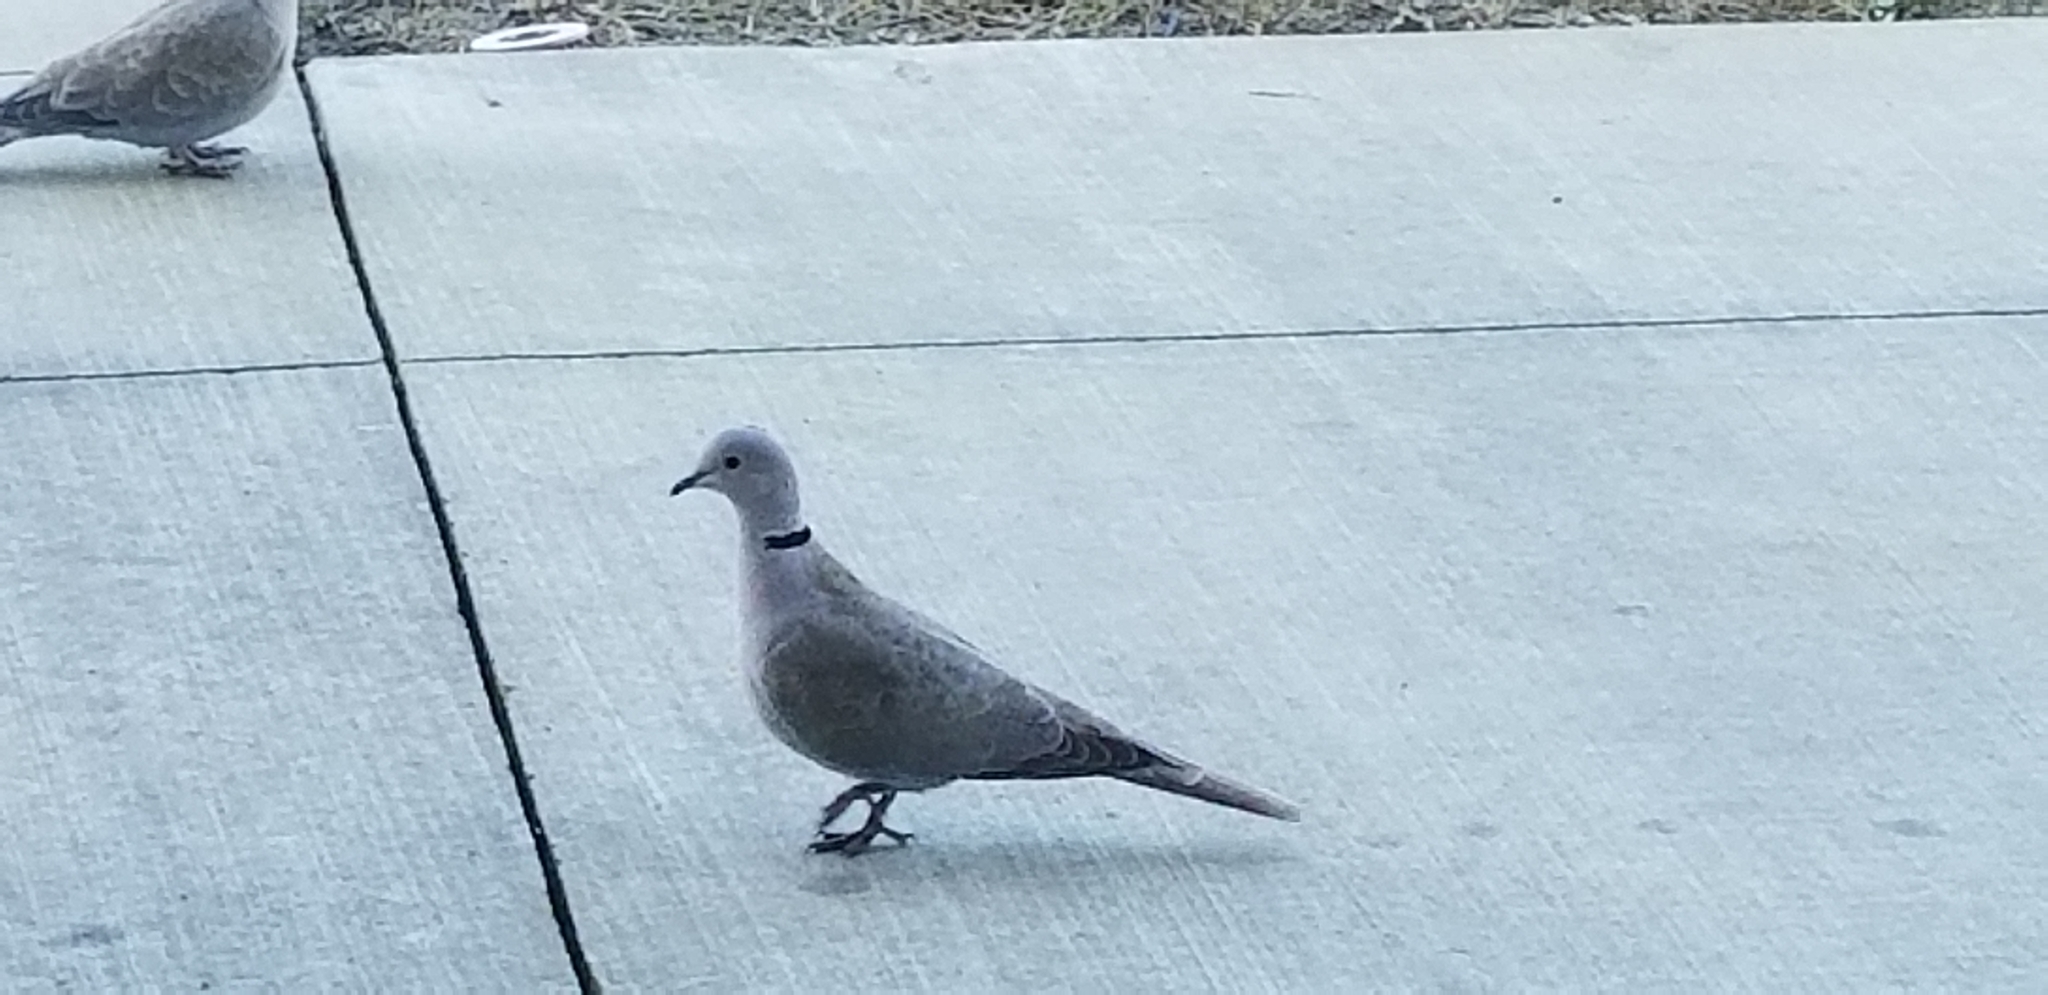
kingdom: Animalia
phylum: Chordata
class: Aves
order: Columbiformes
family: Columbidae
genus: Streptopelia
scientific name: Streptopelia decaocto
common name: Eurasian collared dove
